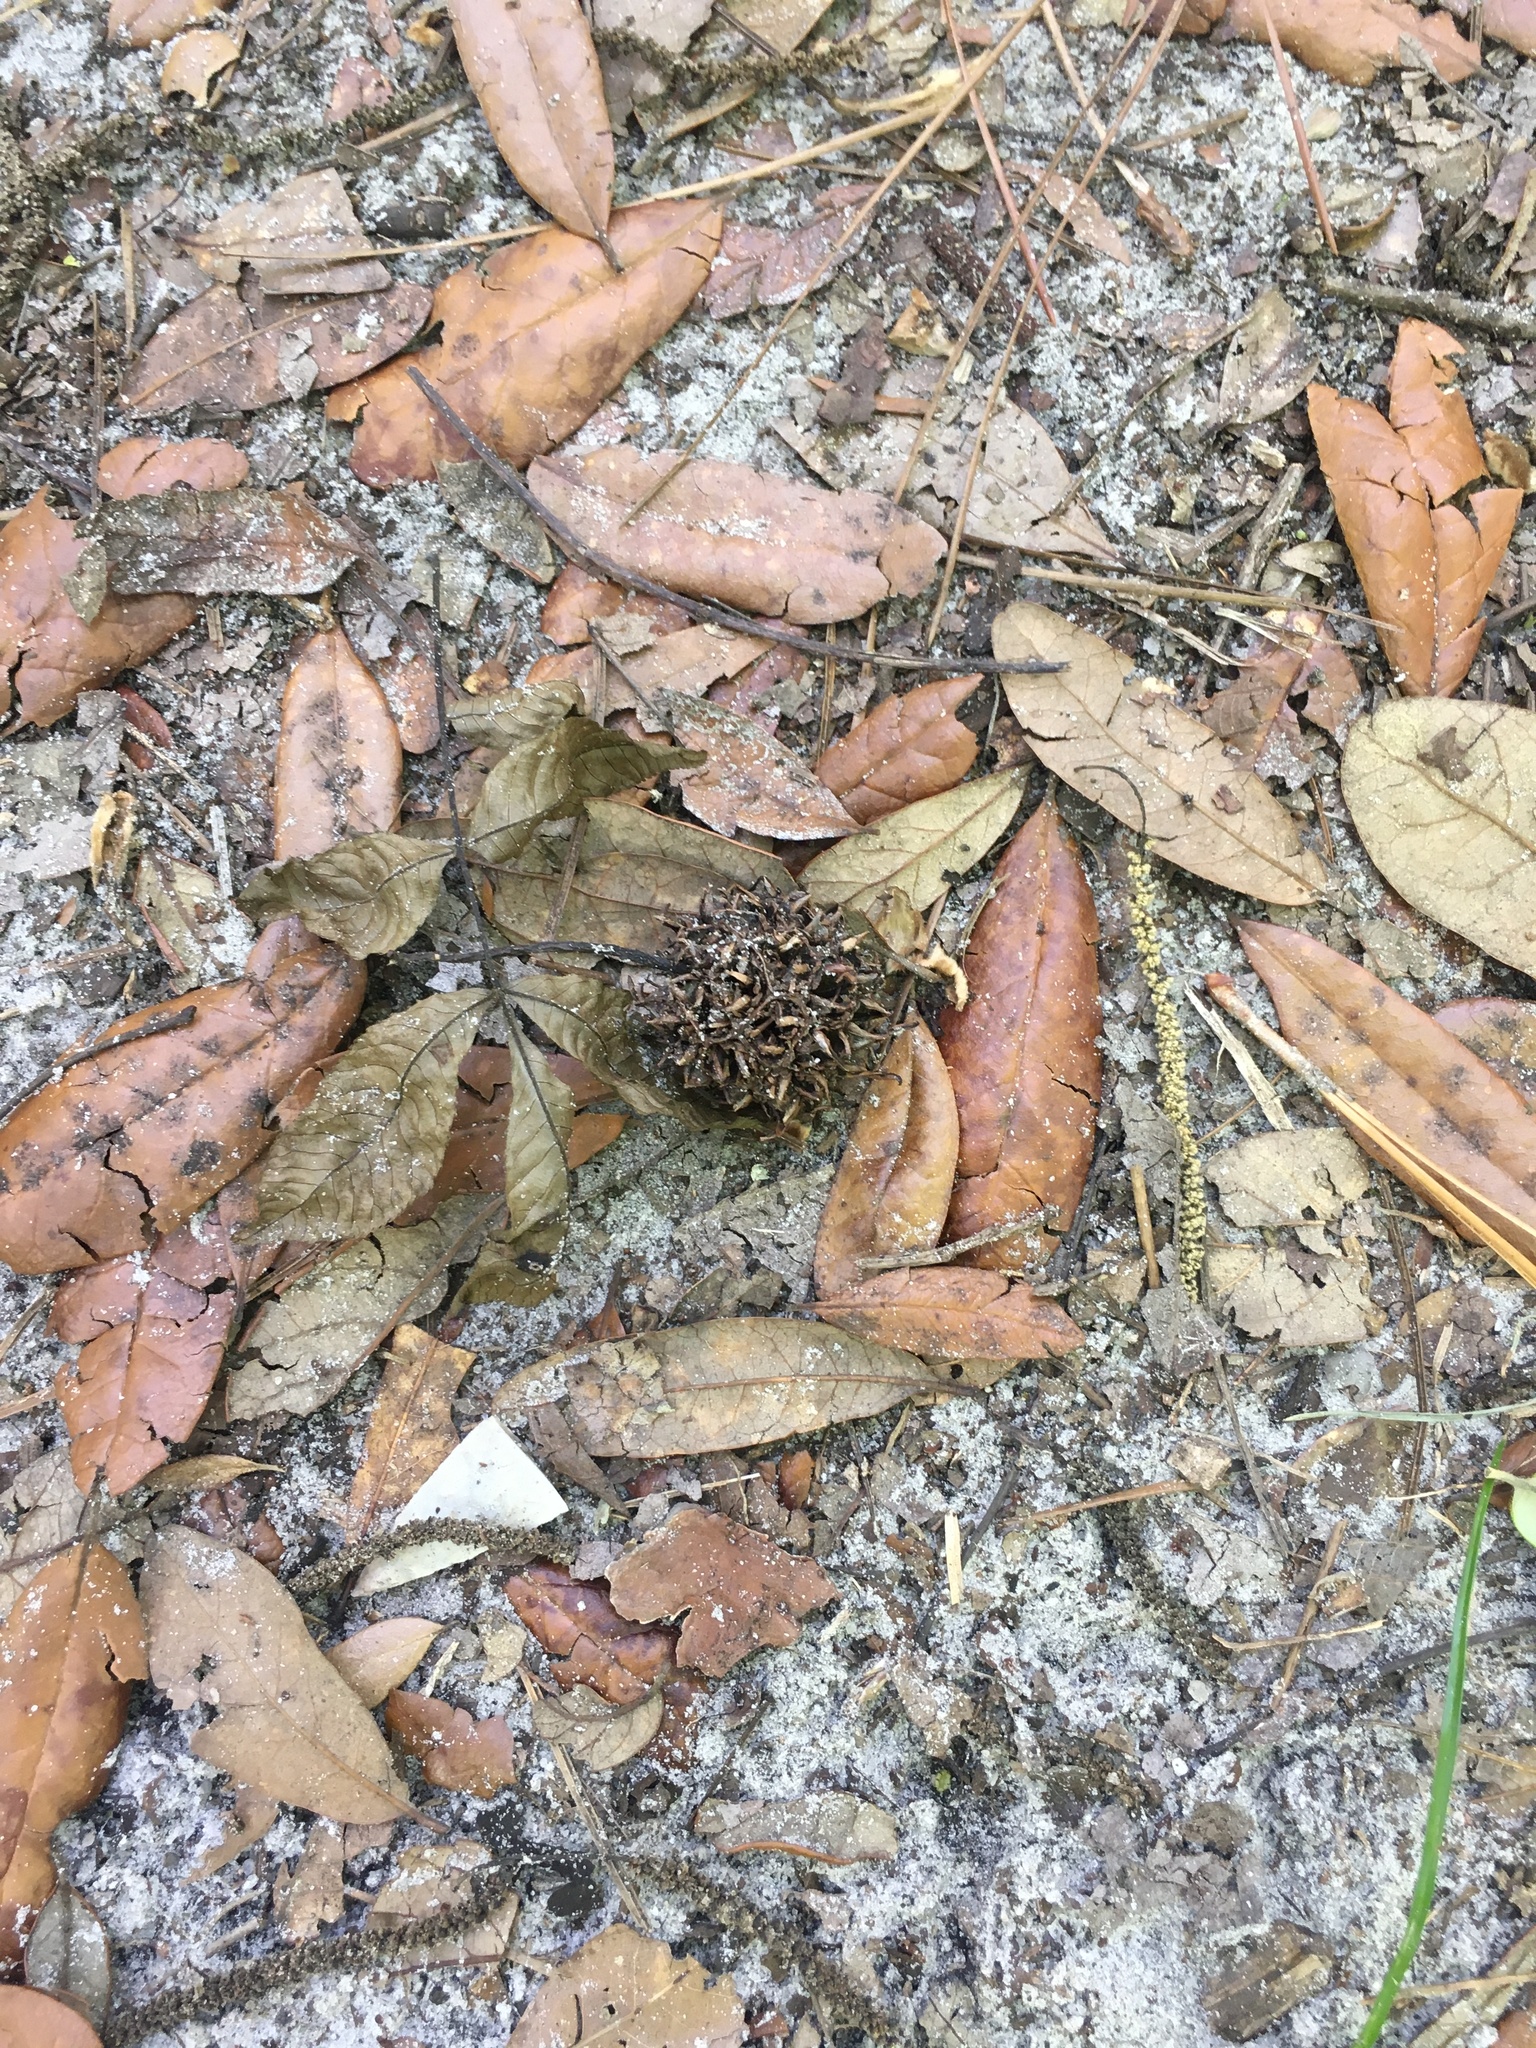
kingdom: Plantae
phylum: Tracheophyta
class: Magnoliopsida
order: Saxifragales
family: Altingiaceae
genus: Liquidambar
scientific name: Liquidambar styraciflua
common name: Sweet gum
